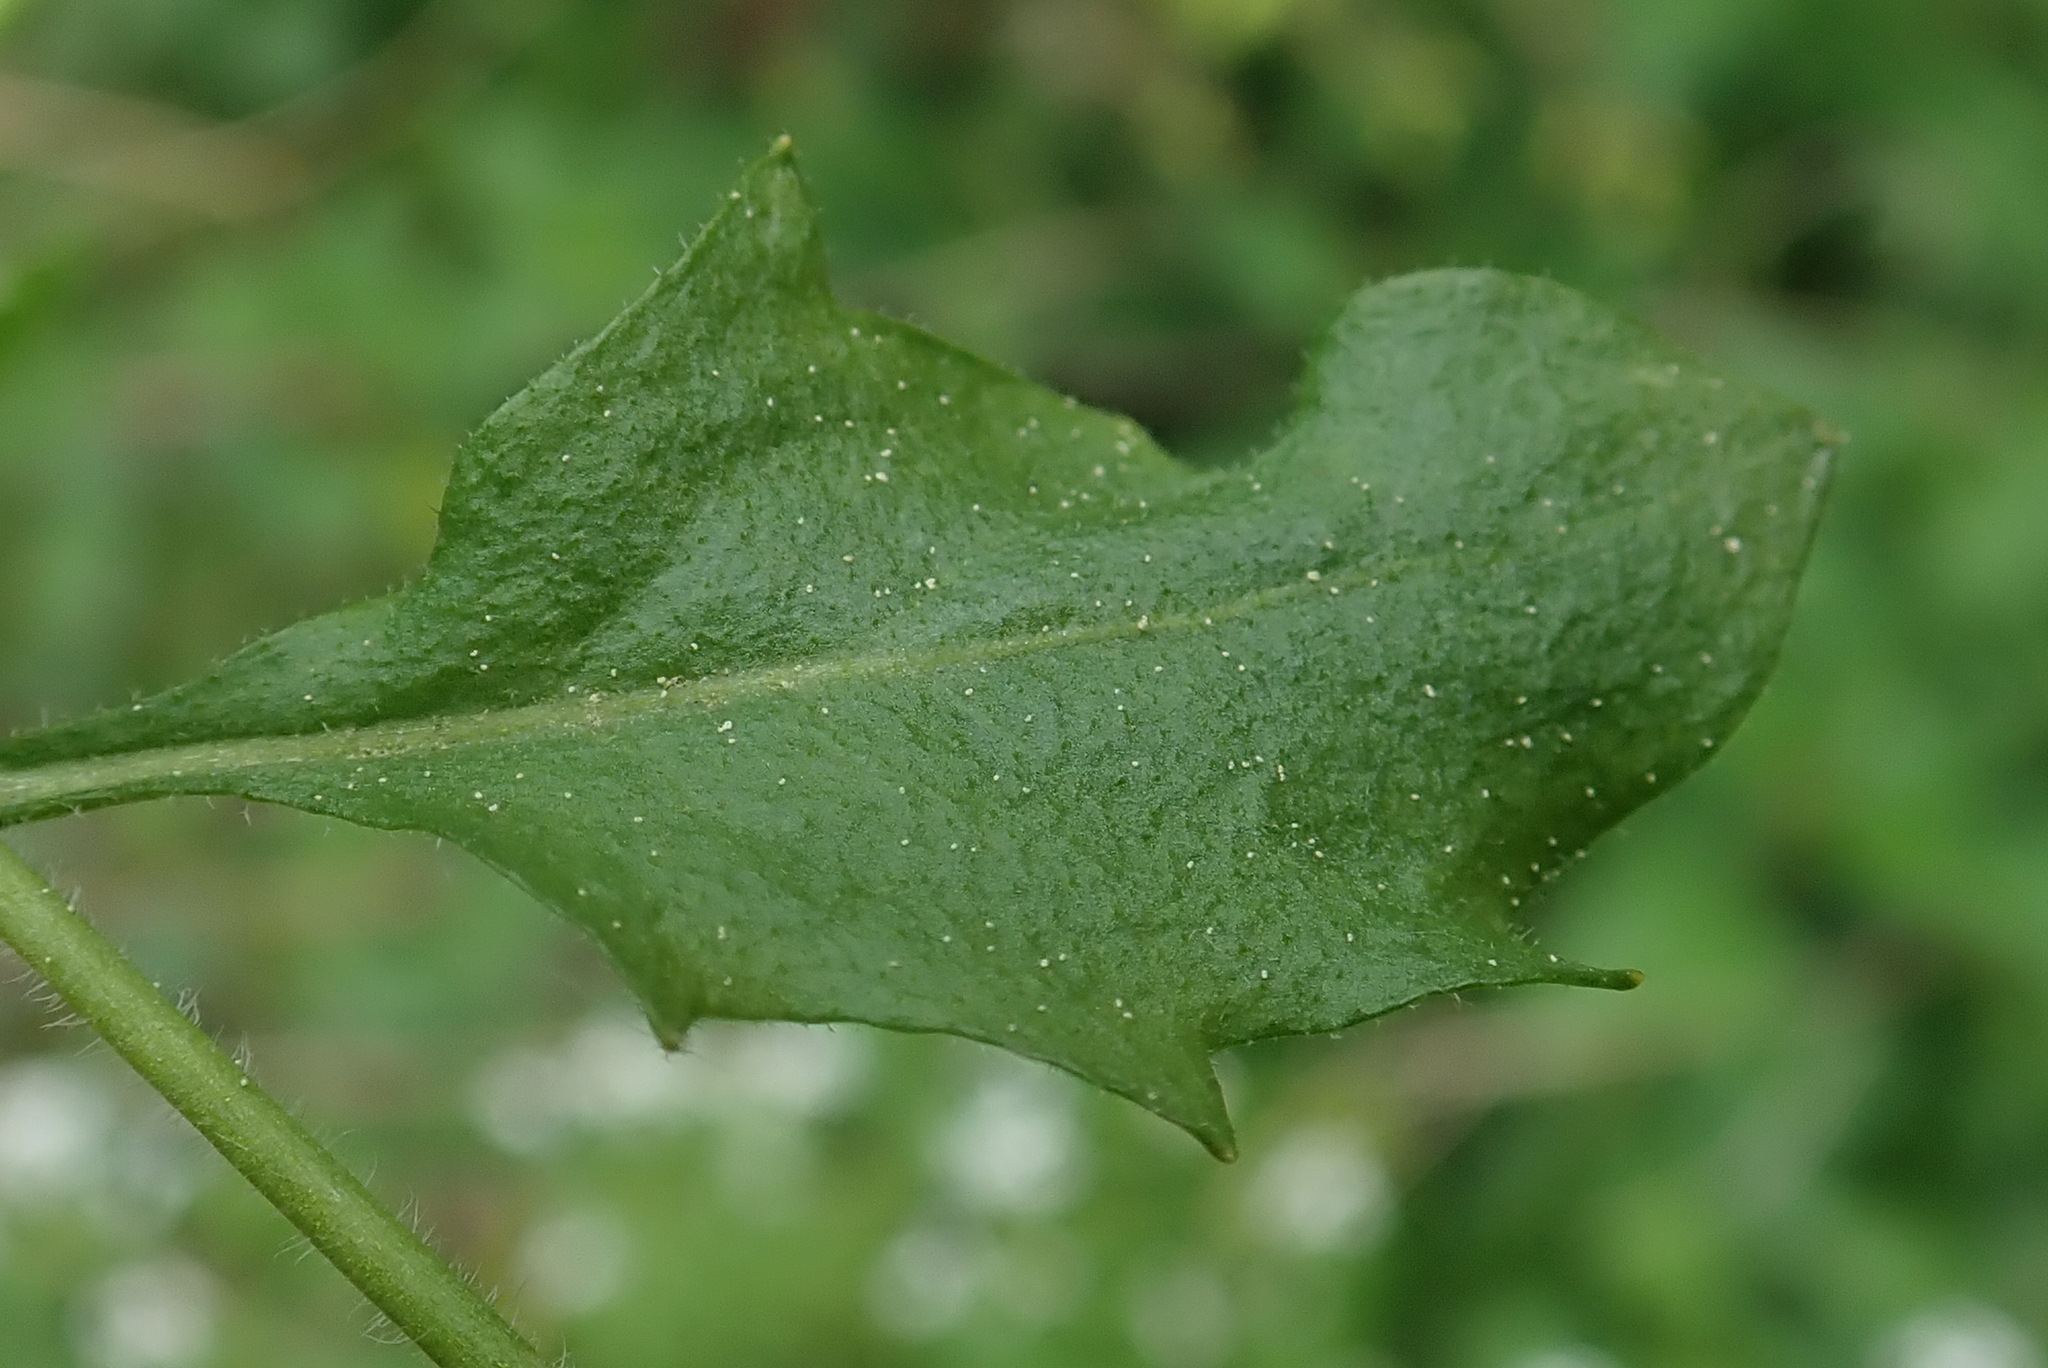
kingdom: Plantae
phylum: Tracheophyta
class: Magnoliopsida
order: Brassicales
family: Brassicaceae
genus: Arabidopsis
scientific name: Arabidopsis halleri
